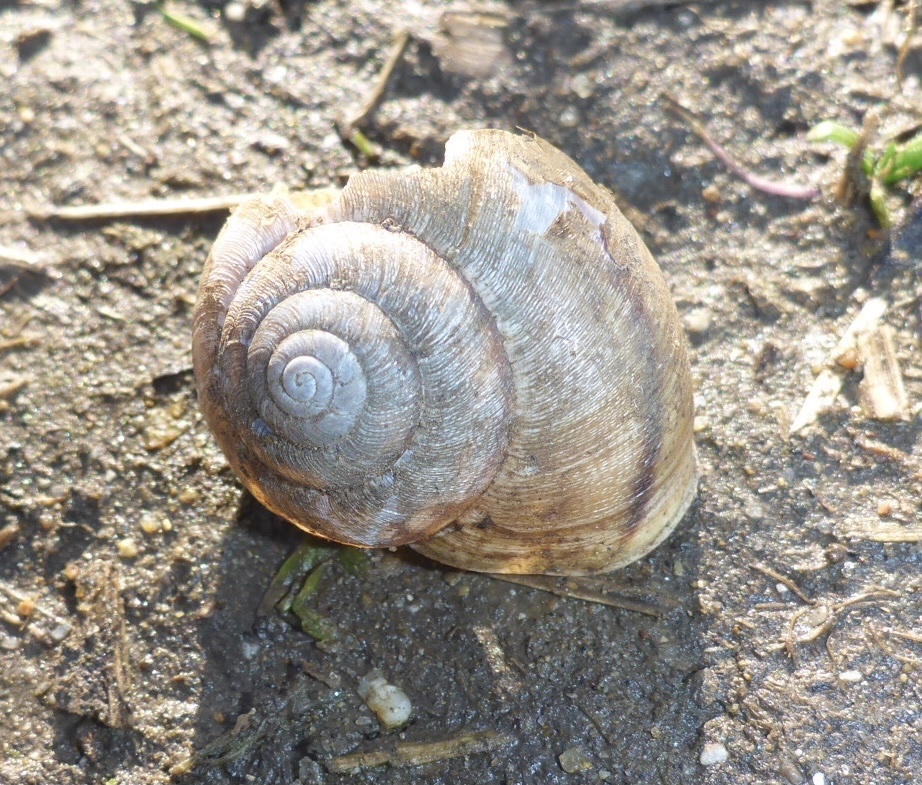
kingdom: Animalia
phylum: Mollusca
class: Gastropoda
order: Stylommatophora
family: Xanthonychidae
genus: Helminthoglypta
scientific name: Helminthoglypta nickliniana
